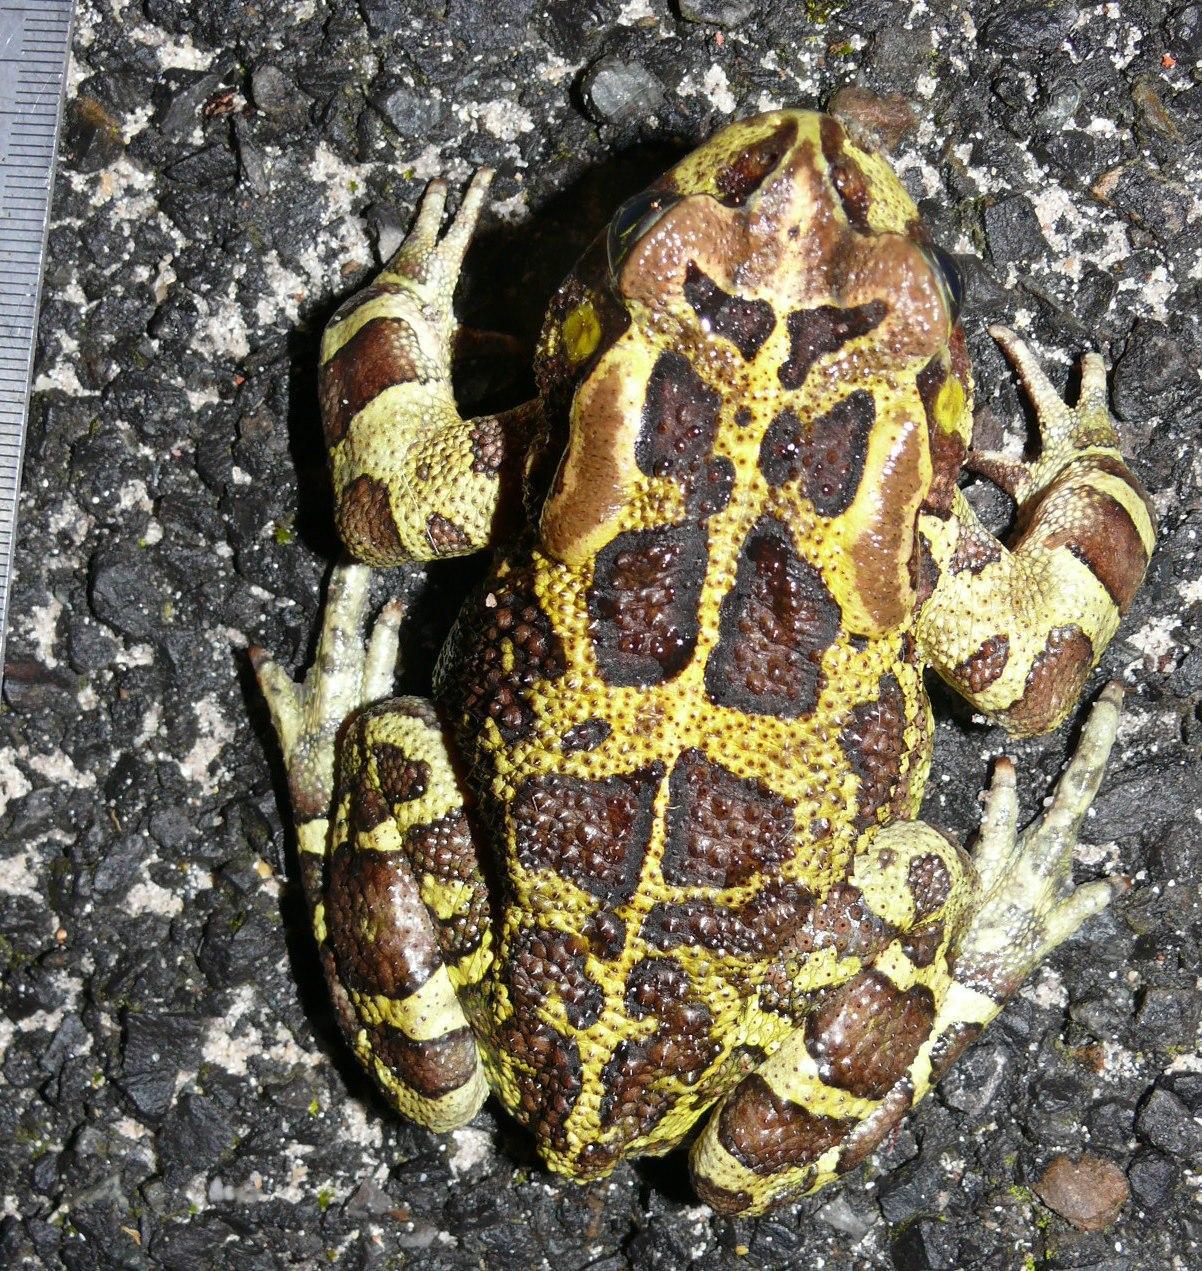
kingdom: Animalia
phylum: Chordata
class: Amphibia
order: Anura
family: Bufonidae
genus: Sclerophrys
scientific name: Sclerophrys pantherina
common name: Panther toad
